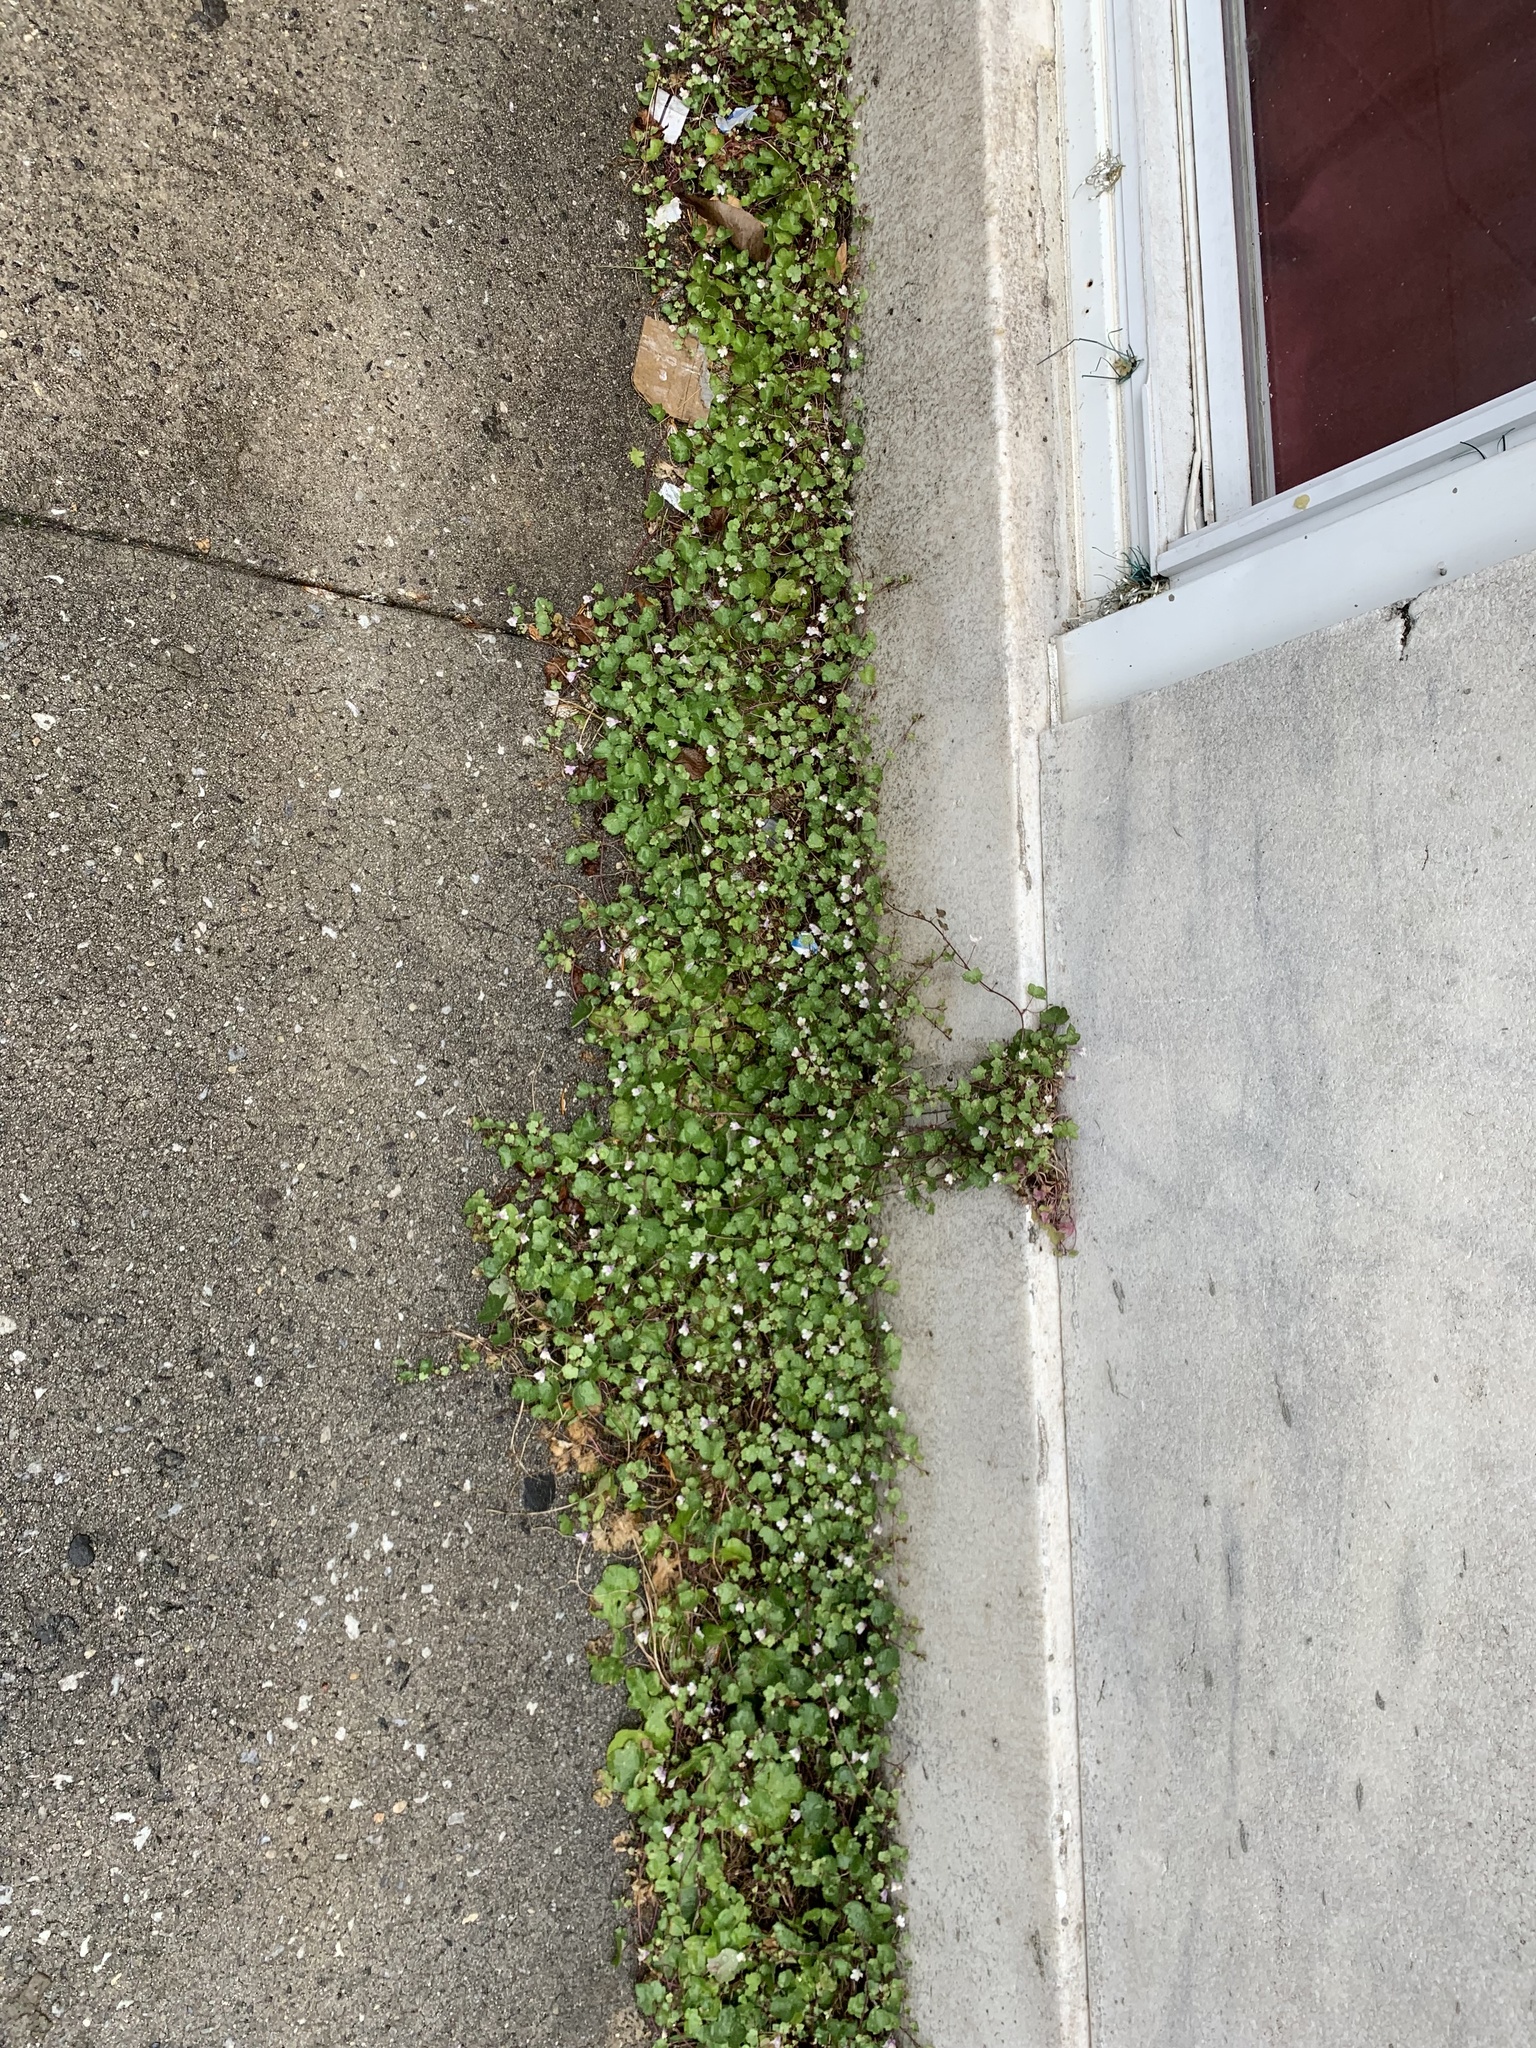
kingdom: Plantae
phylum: Tracheophyta
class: Magnoliopsida
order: Lamiales
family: Plantaginaceae
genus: Cymbalaria
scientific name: Cymbalaria muralis
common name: Ivy-leaved toadflax
